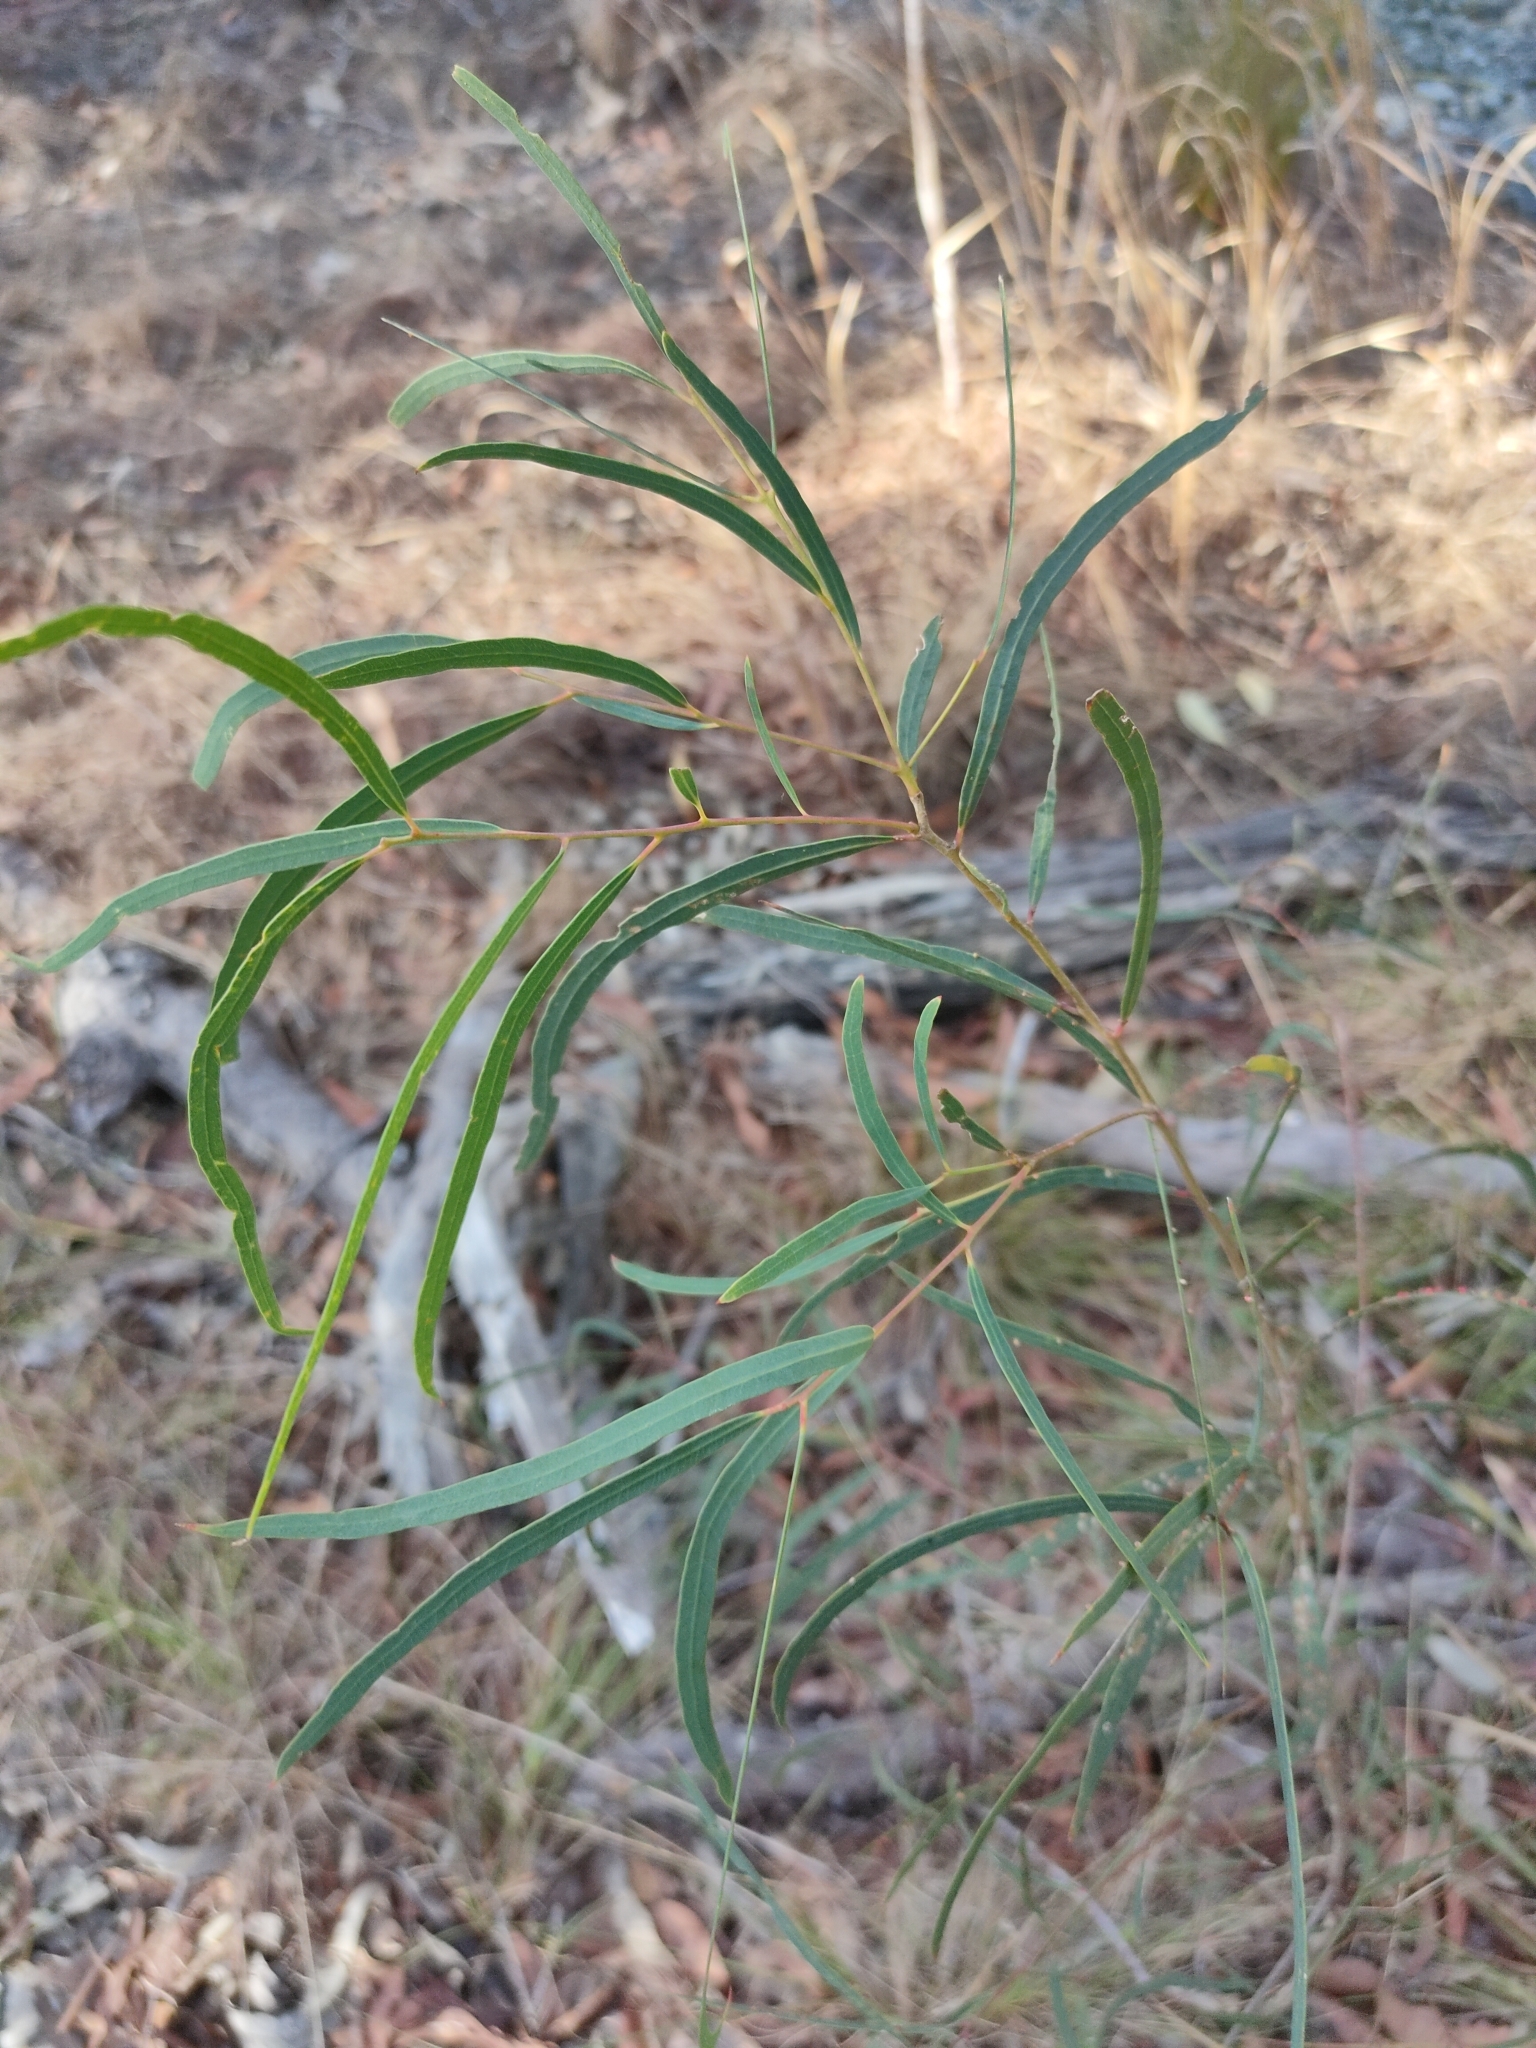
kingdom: Plantae
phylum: Tracheophyta
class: Magnoliopsida
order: Myrtales
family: Myrtaceae
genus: Eucalyptus
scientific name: Eucalyptus exserta
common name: Peppermint-bendo
